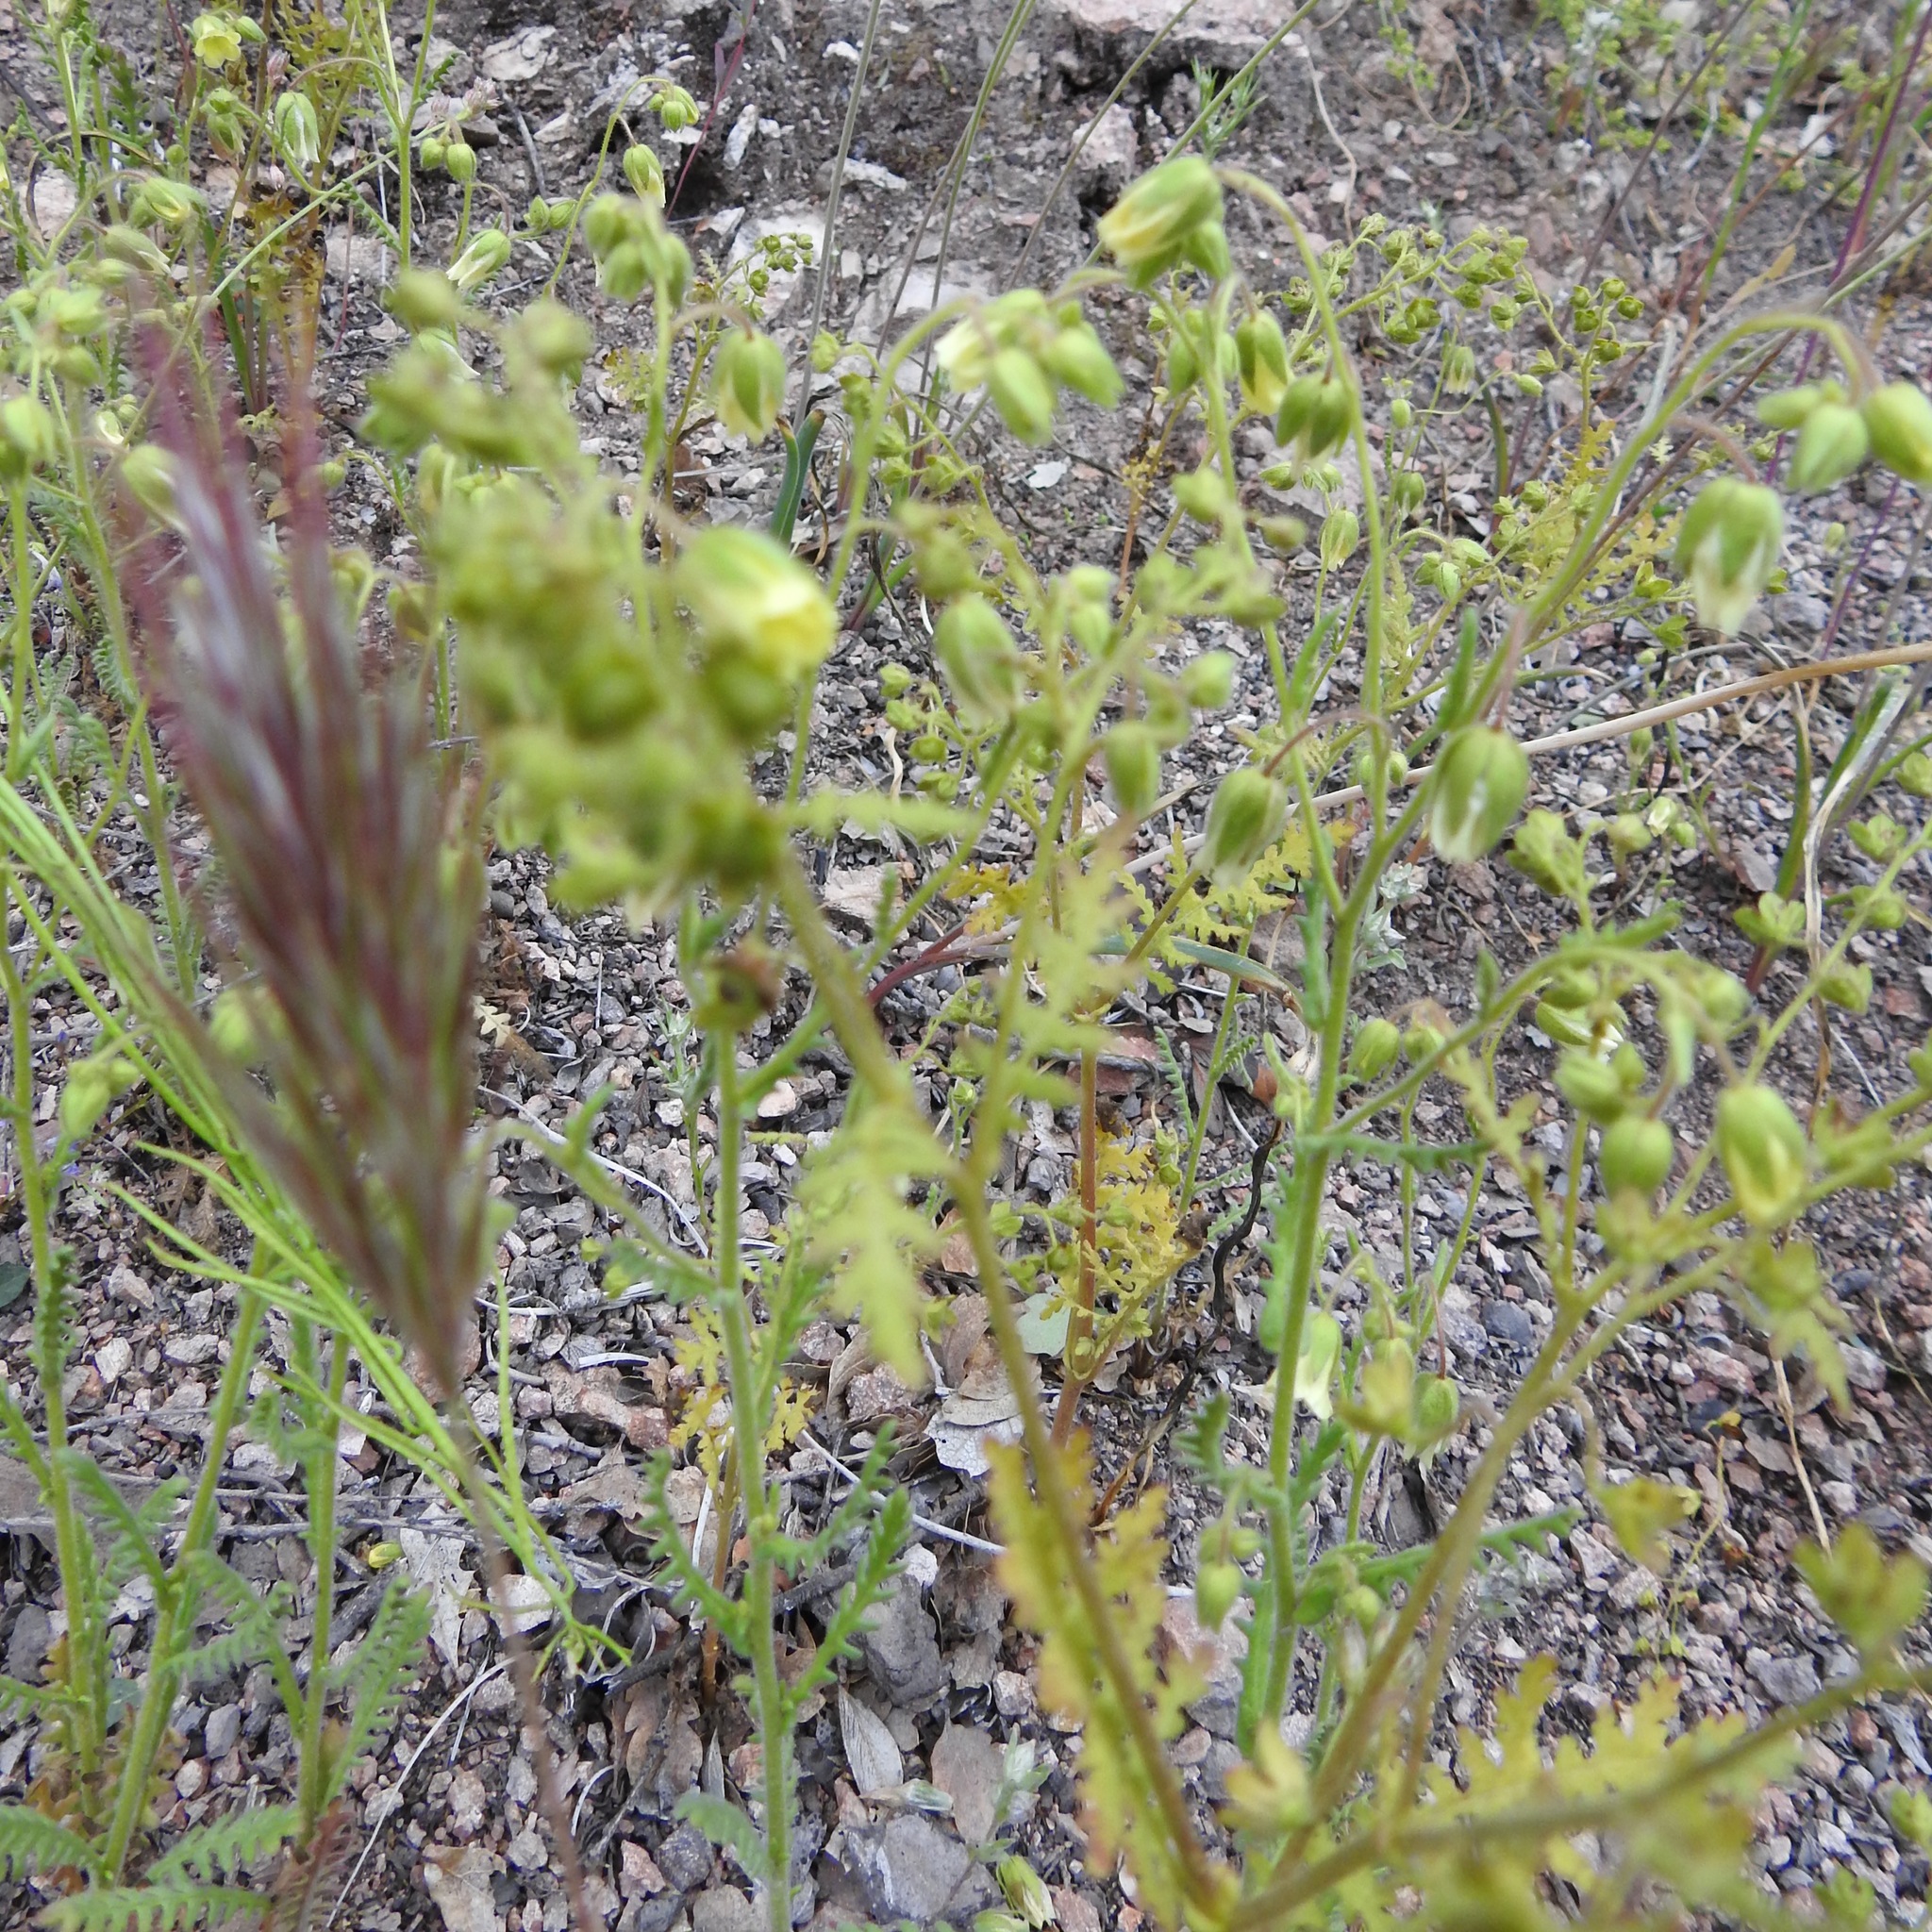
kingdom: Plantae
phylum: Tracheophyta
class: Magnoliopsida
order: Boraginales
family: Hydrophyllaceae
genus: Emmenanthe
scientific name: Emmenanthe penduliflora
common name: Whispering-bells
